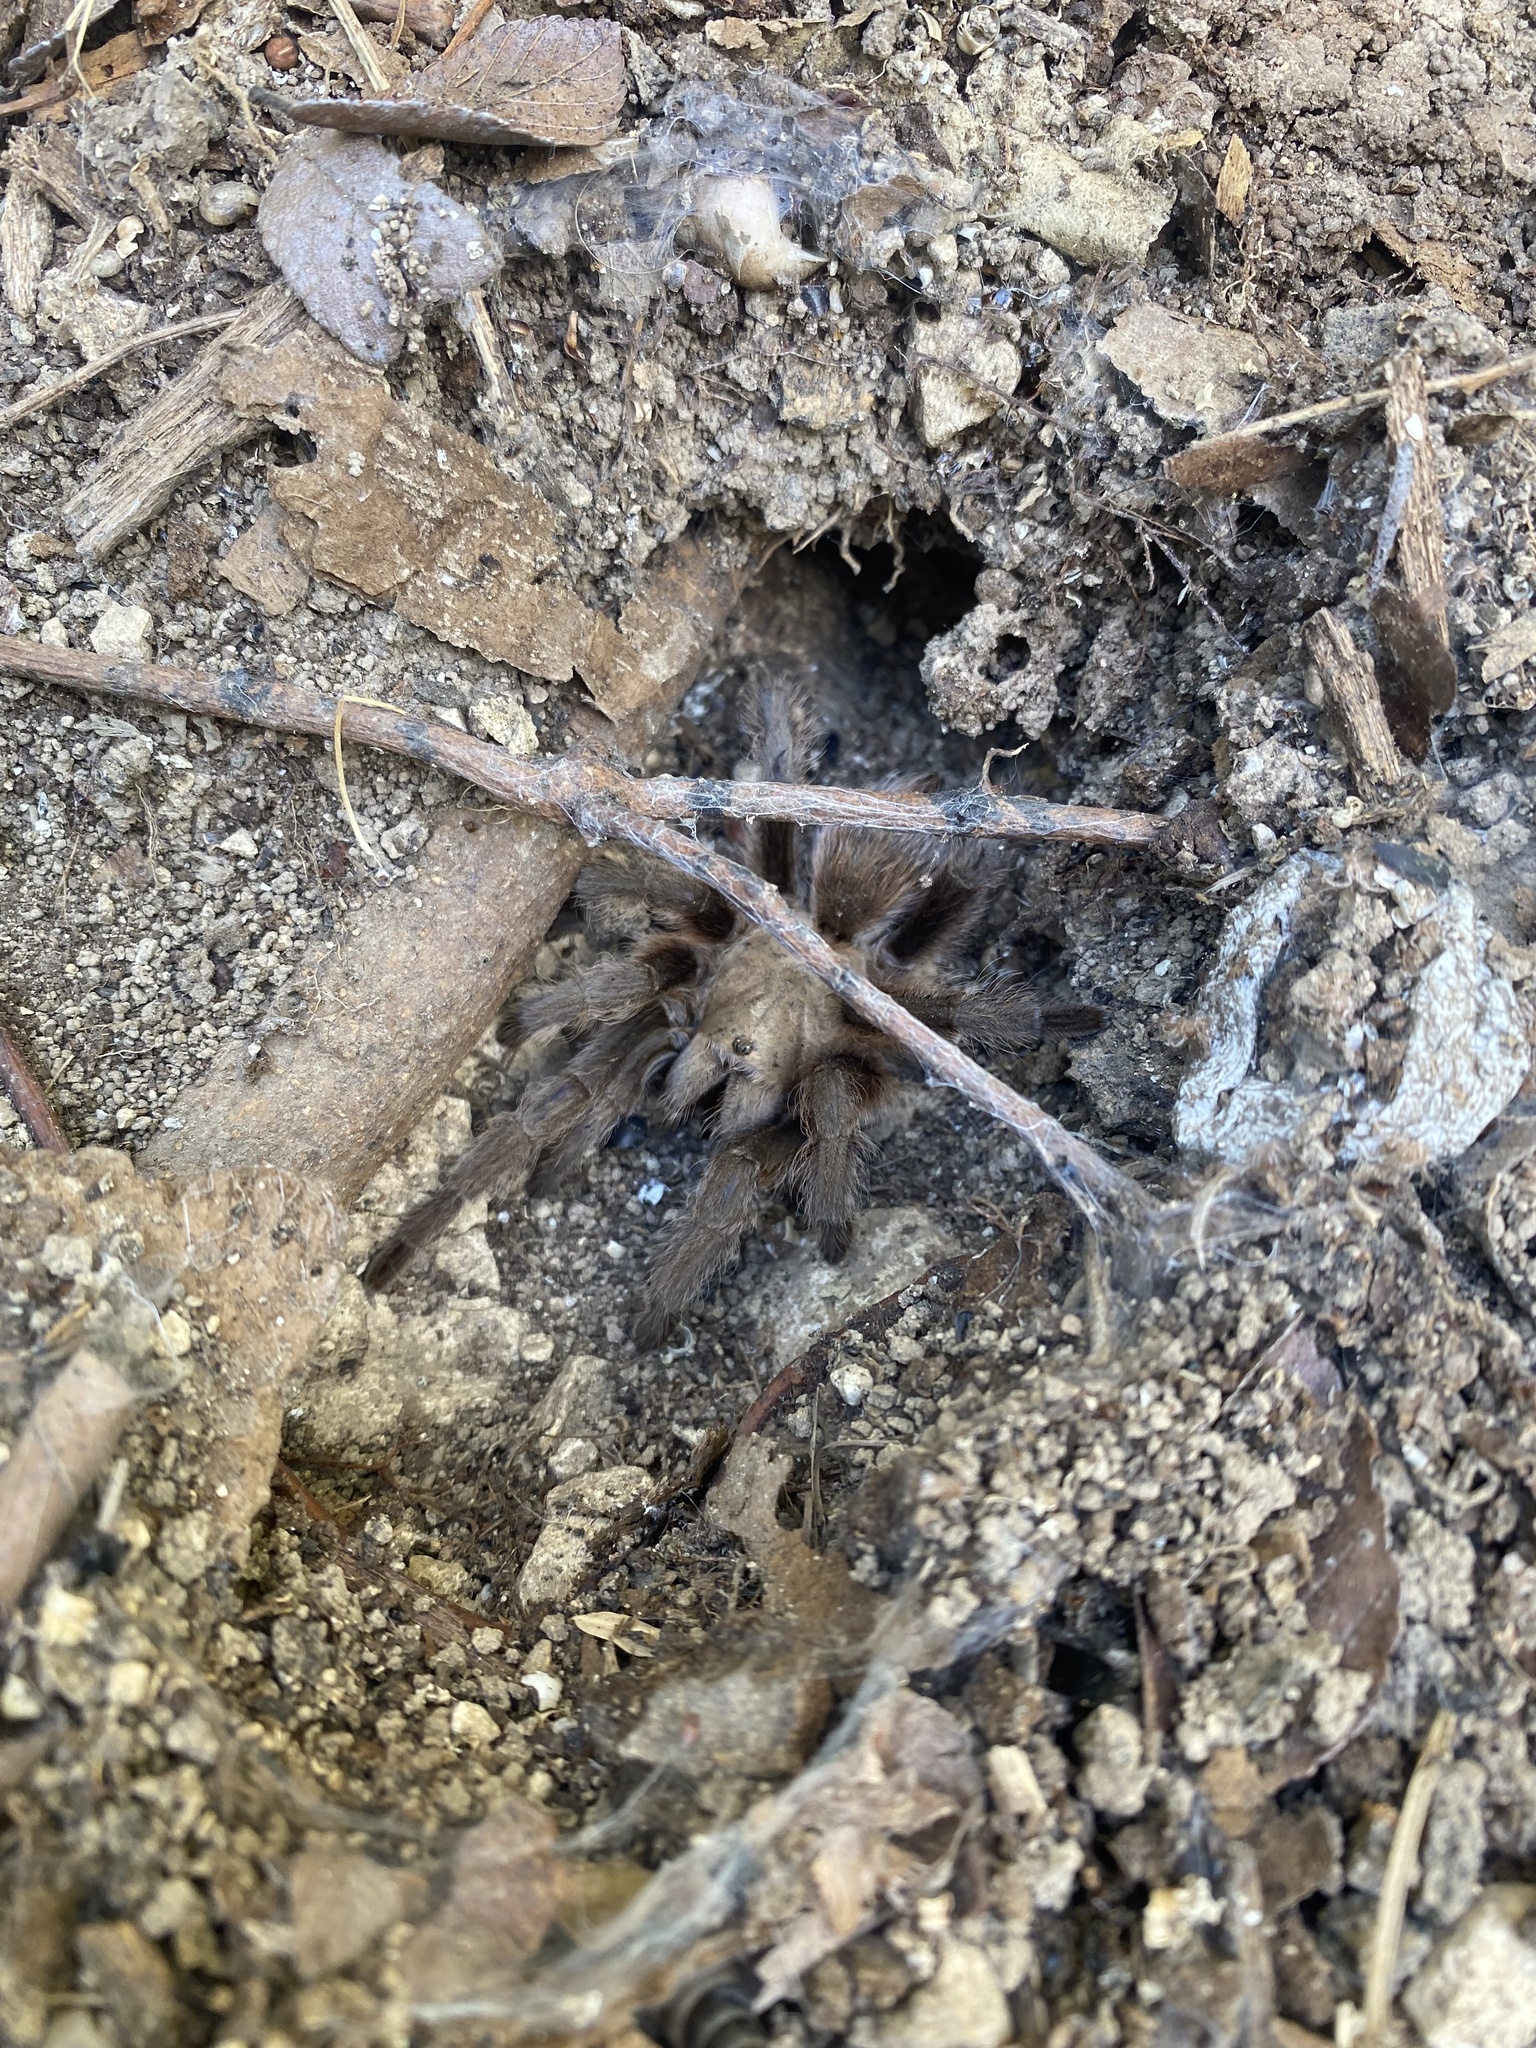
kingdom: Animalia
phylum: Arthropoda
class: Arachnida
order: Araneae
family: Theraphosidae
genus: Aphonopelma
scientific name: Aphonopelma hentzi
